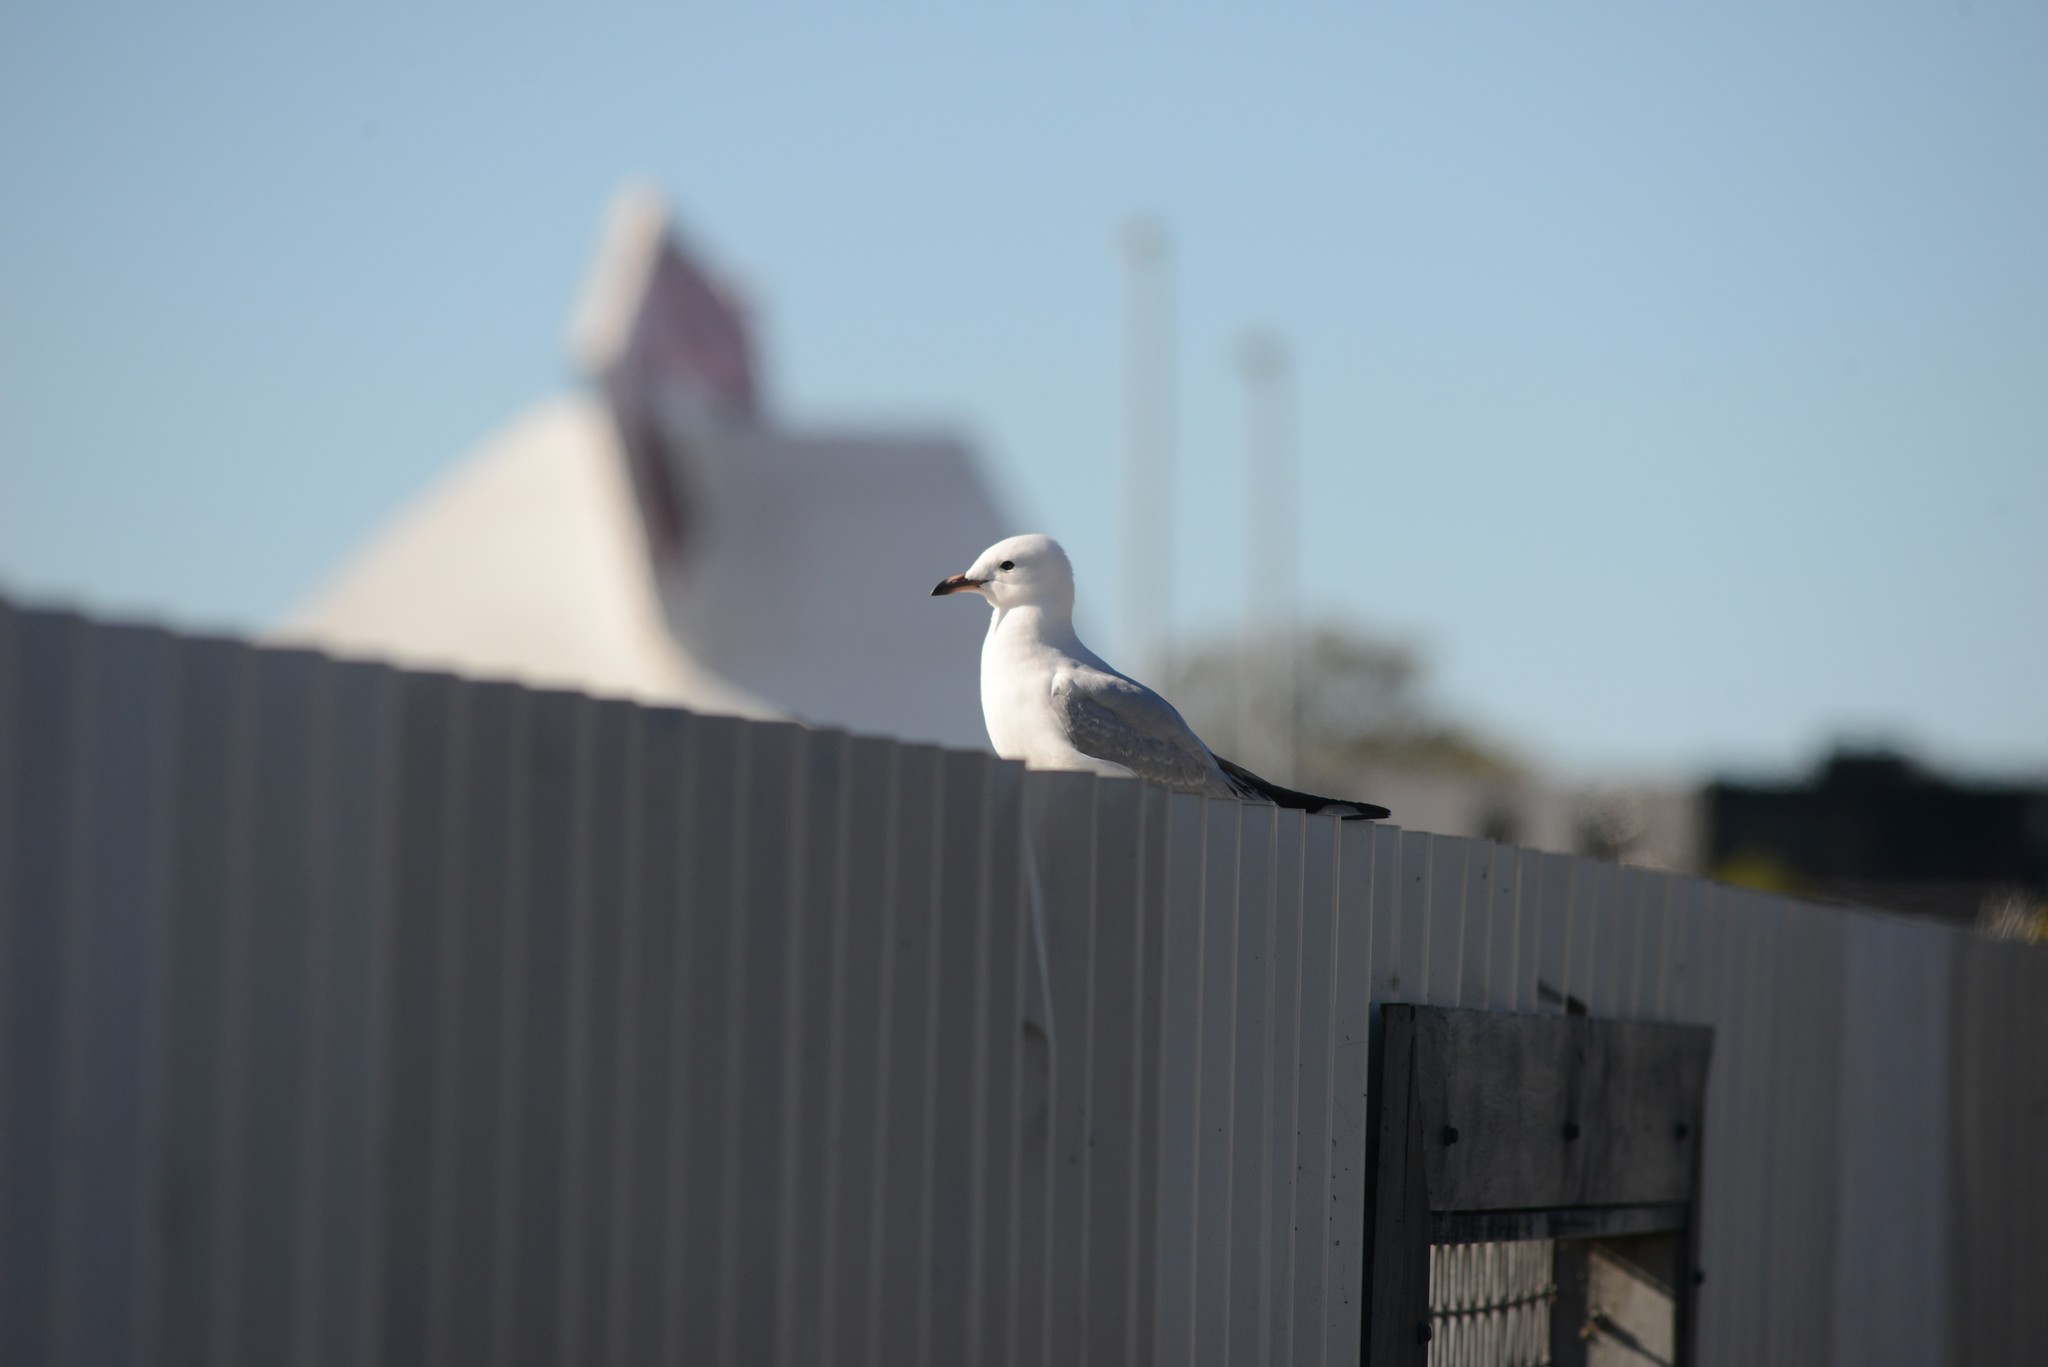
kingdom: Animalia
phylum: Chordata
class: Aves
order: Charadriiformes
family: Laridae
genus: Chroicocephalus
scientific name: Chroicocephalus novaehollandiae
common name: Silver gull
